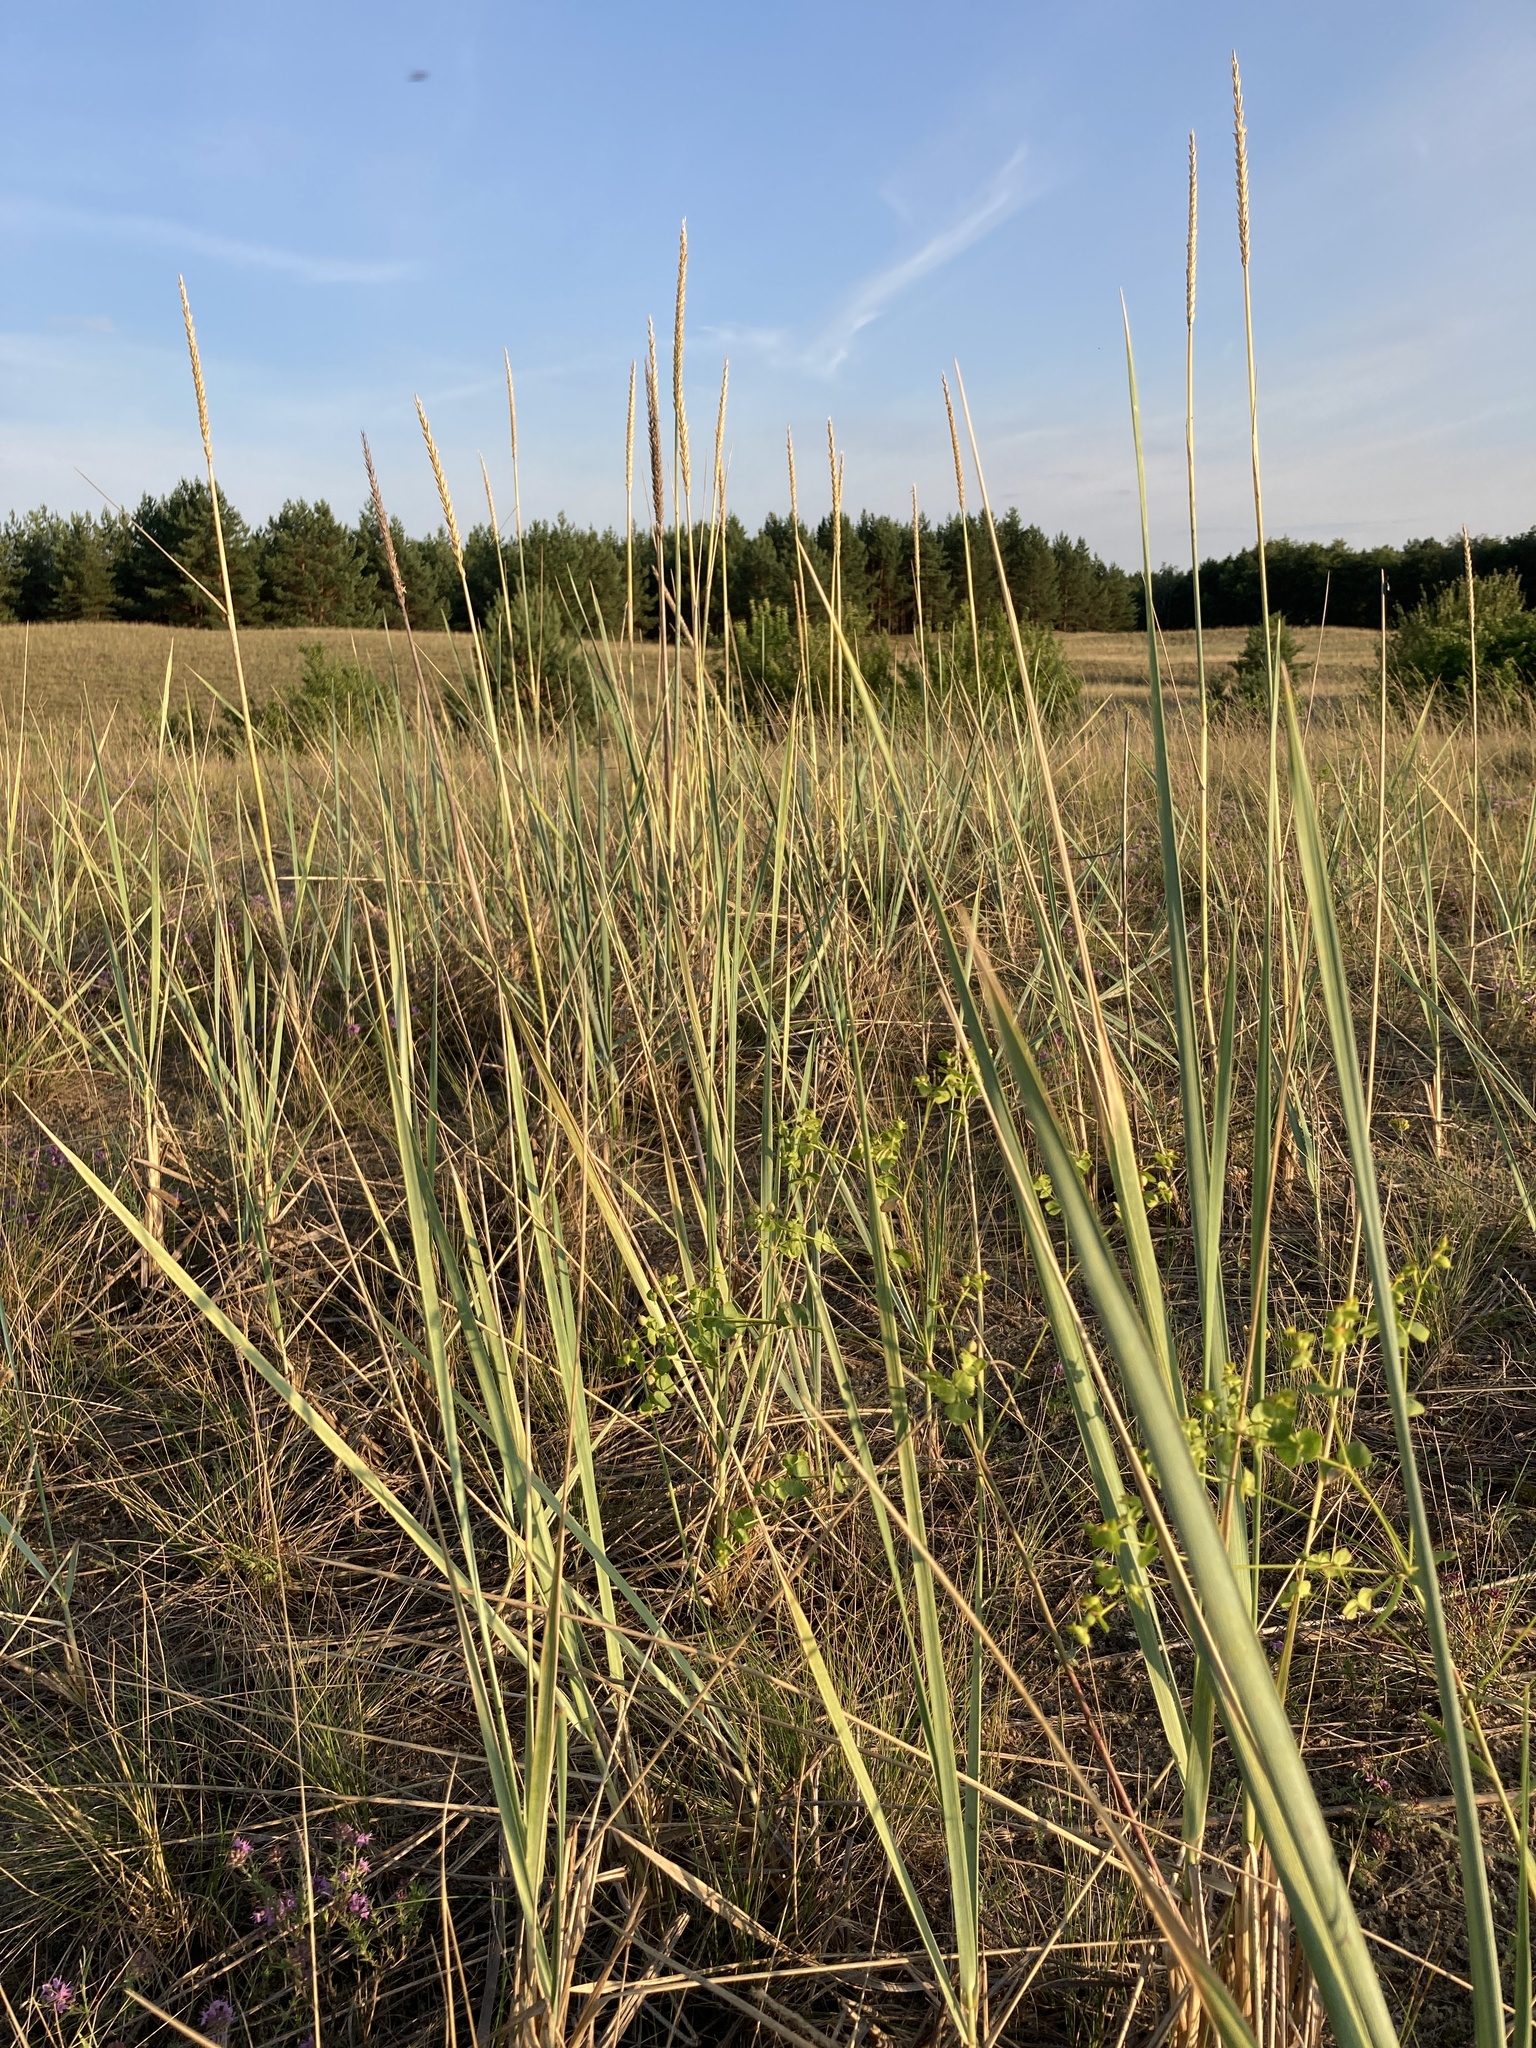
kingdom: Plantae
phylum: Tracheophyta
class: Liliopsida
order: Poales
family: Poaceae
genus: Leymus
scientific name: Leymus racemosus
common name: Mammoth wildrye
